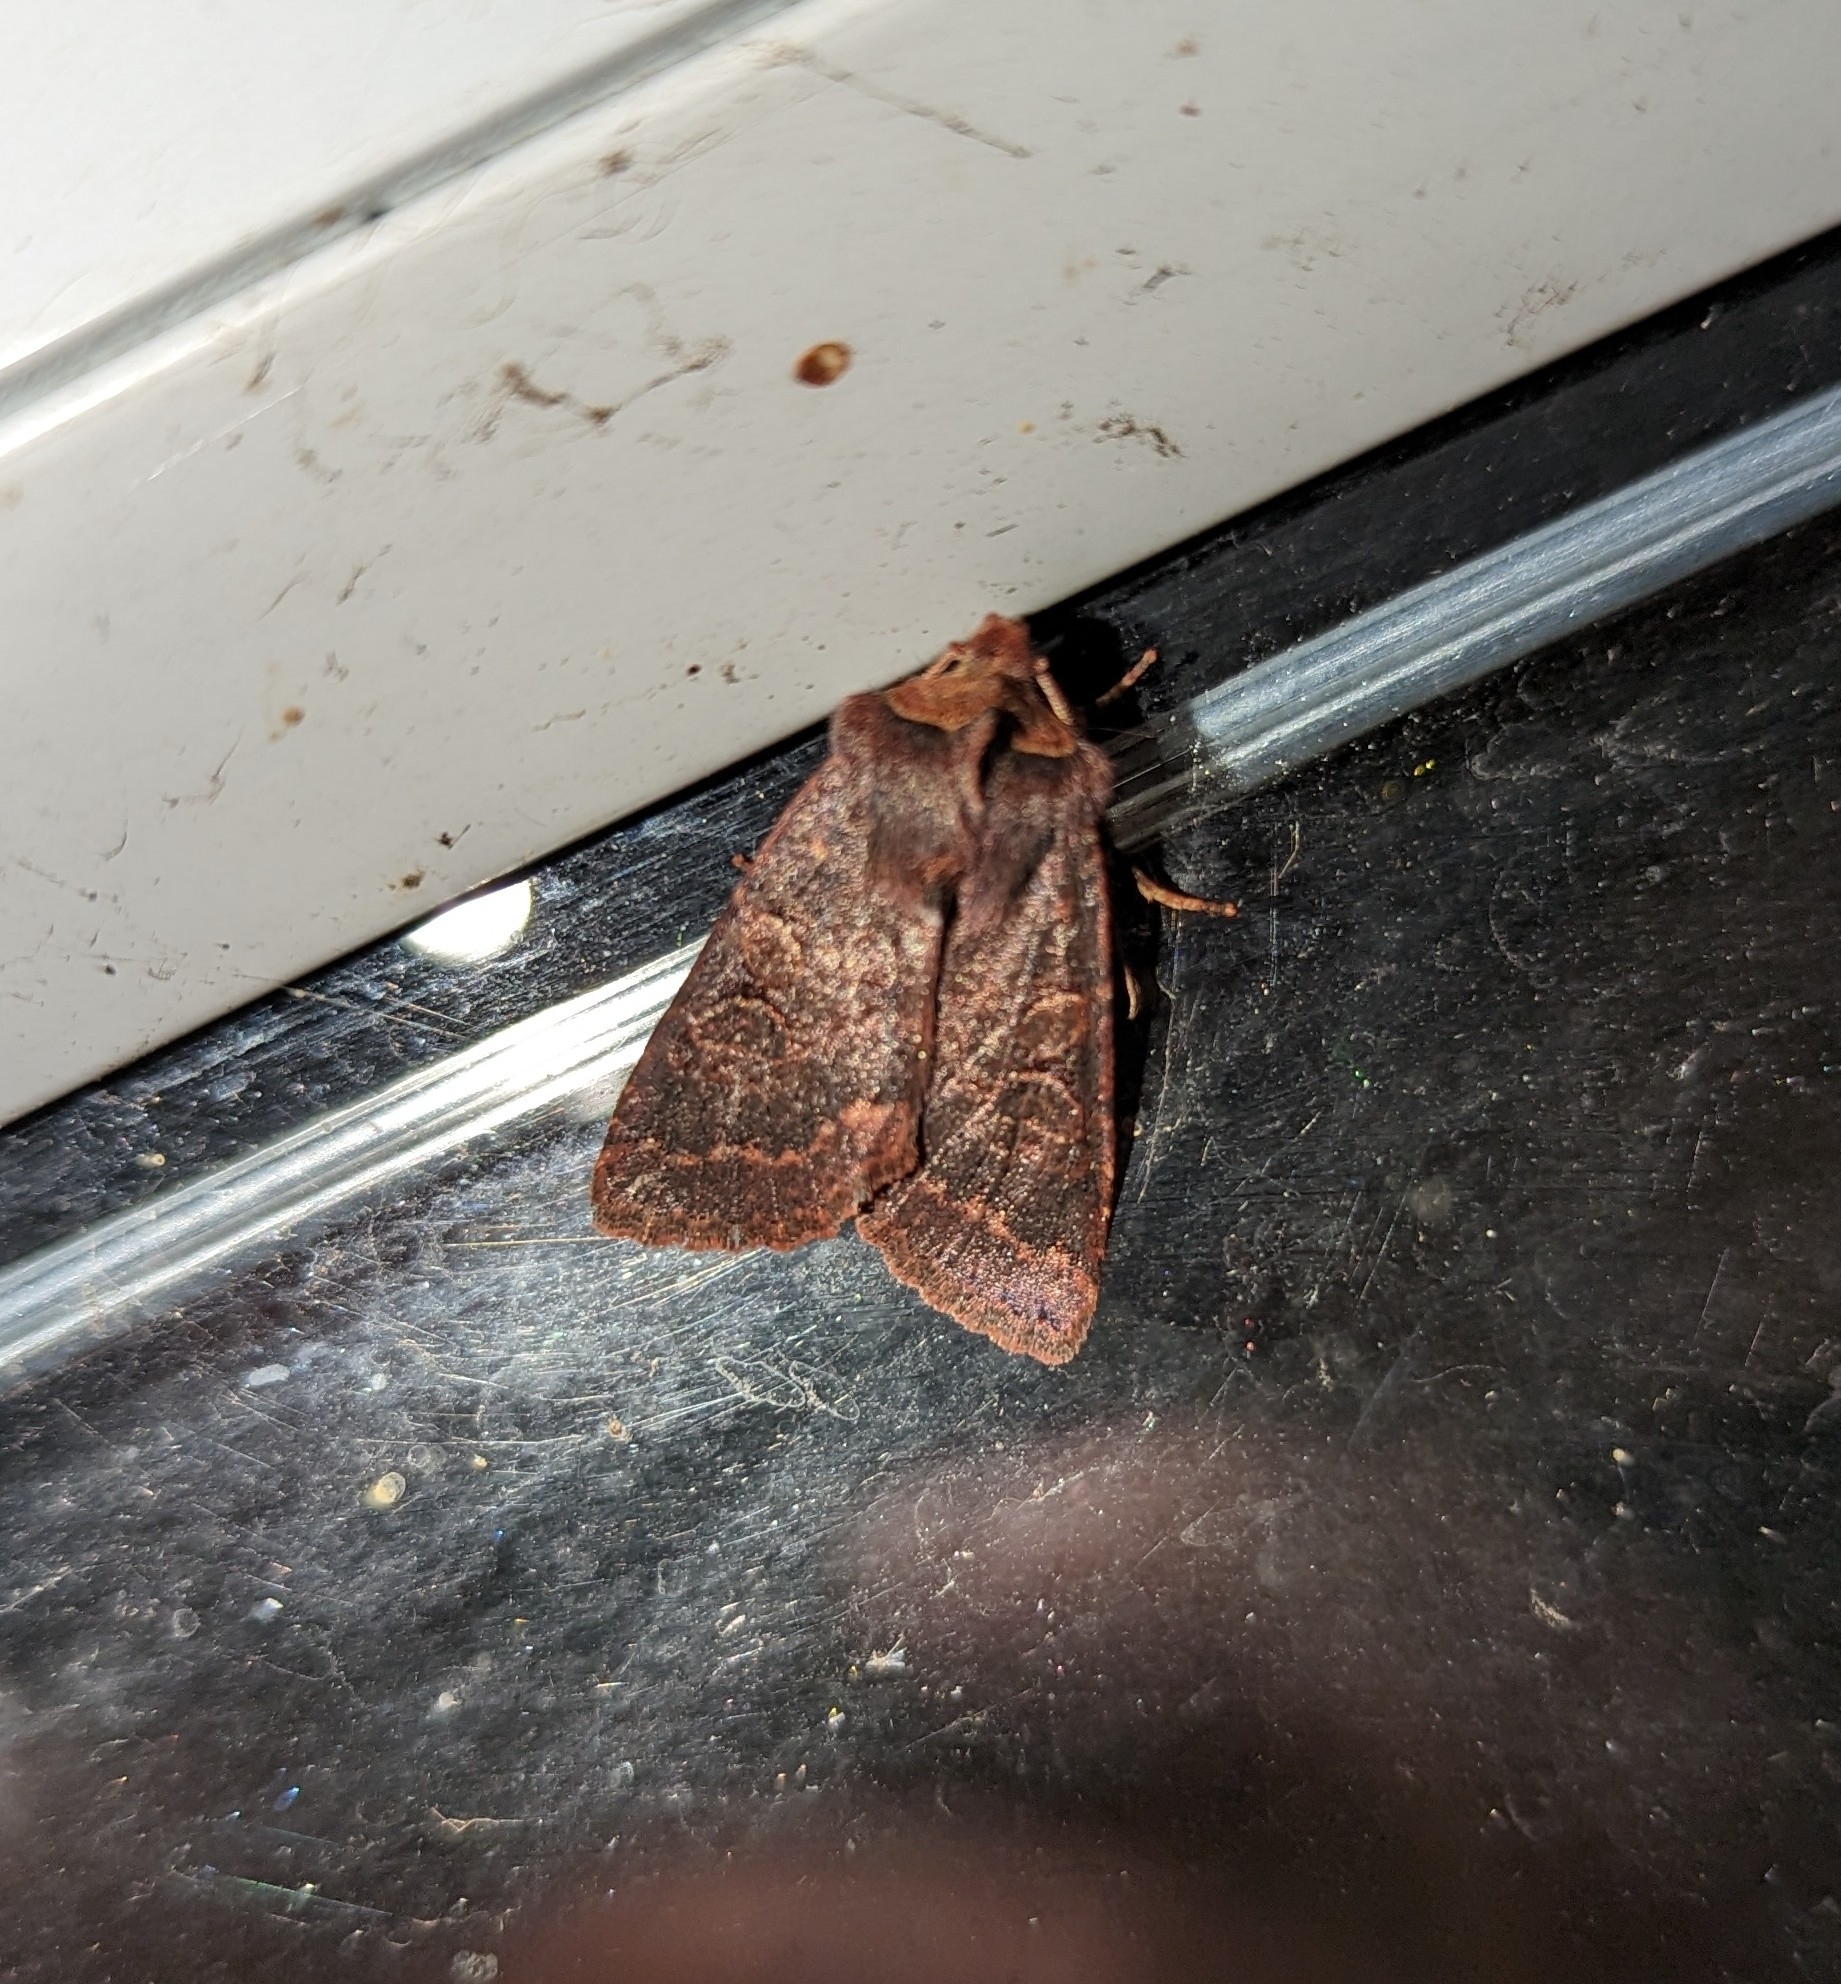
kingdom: Animalia
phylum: Arthropoda
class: Insecta
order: Lepidoptera
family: Noctuidae
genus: Orthosia
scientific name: Orthosia praeses
